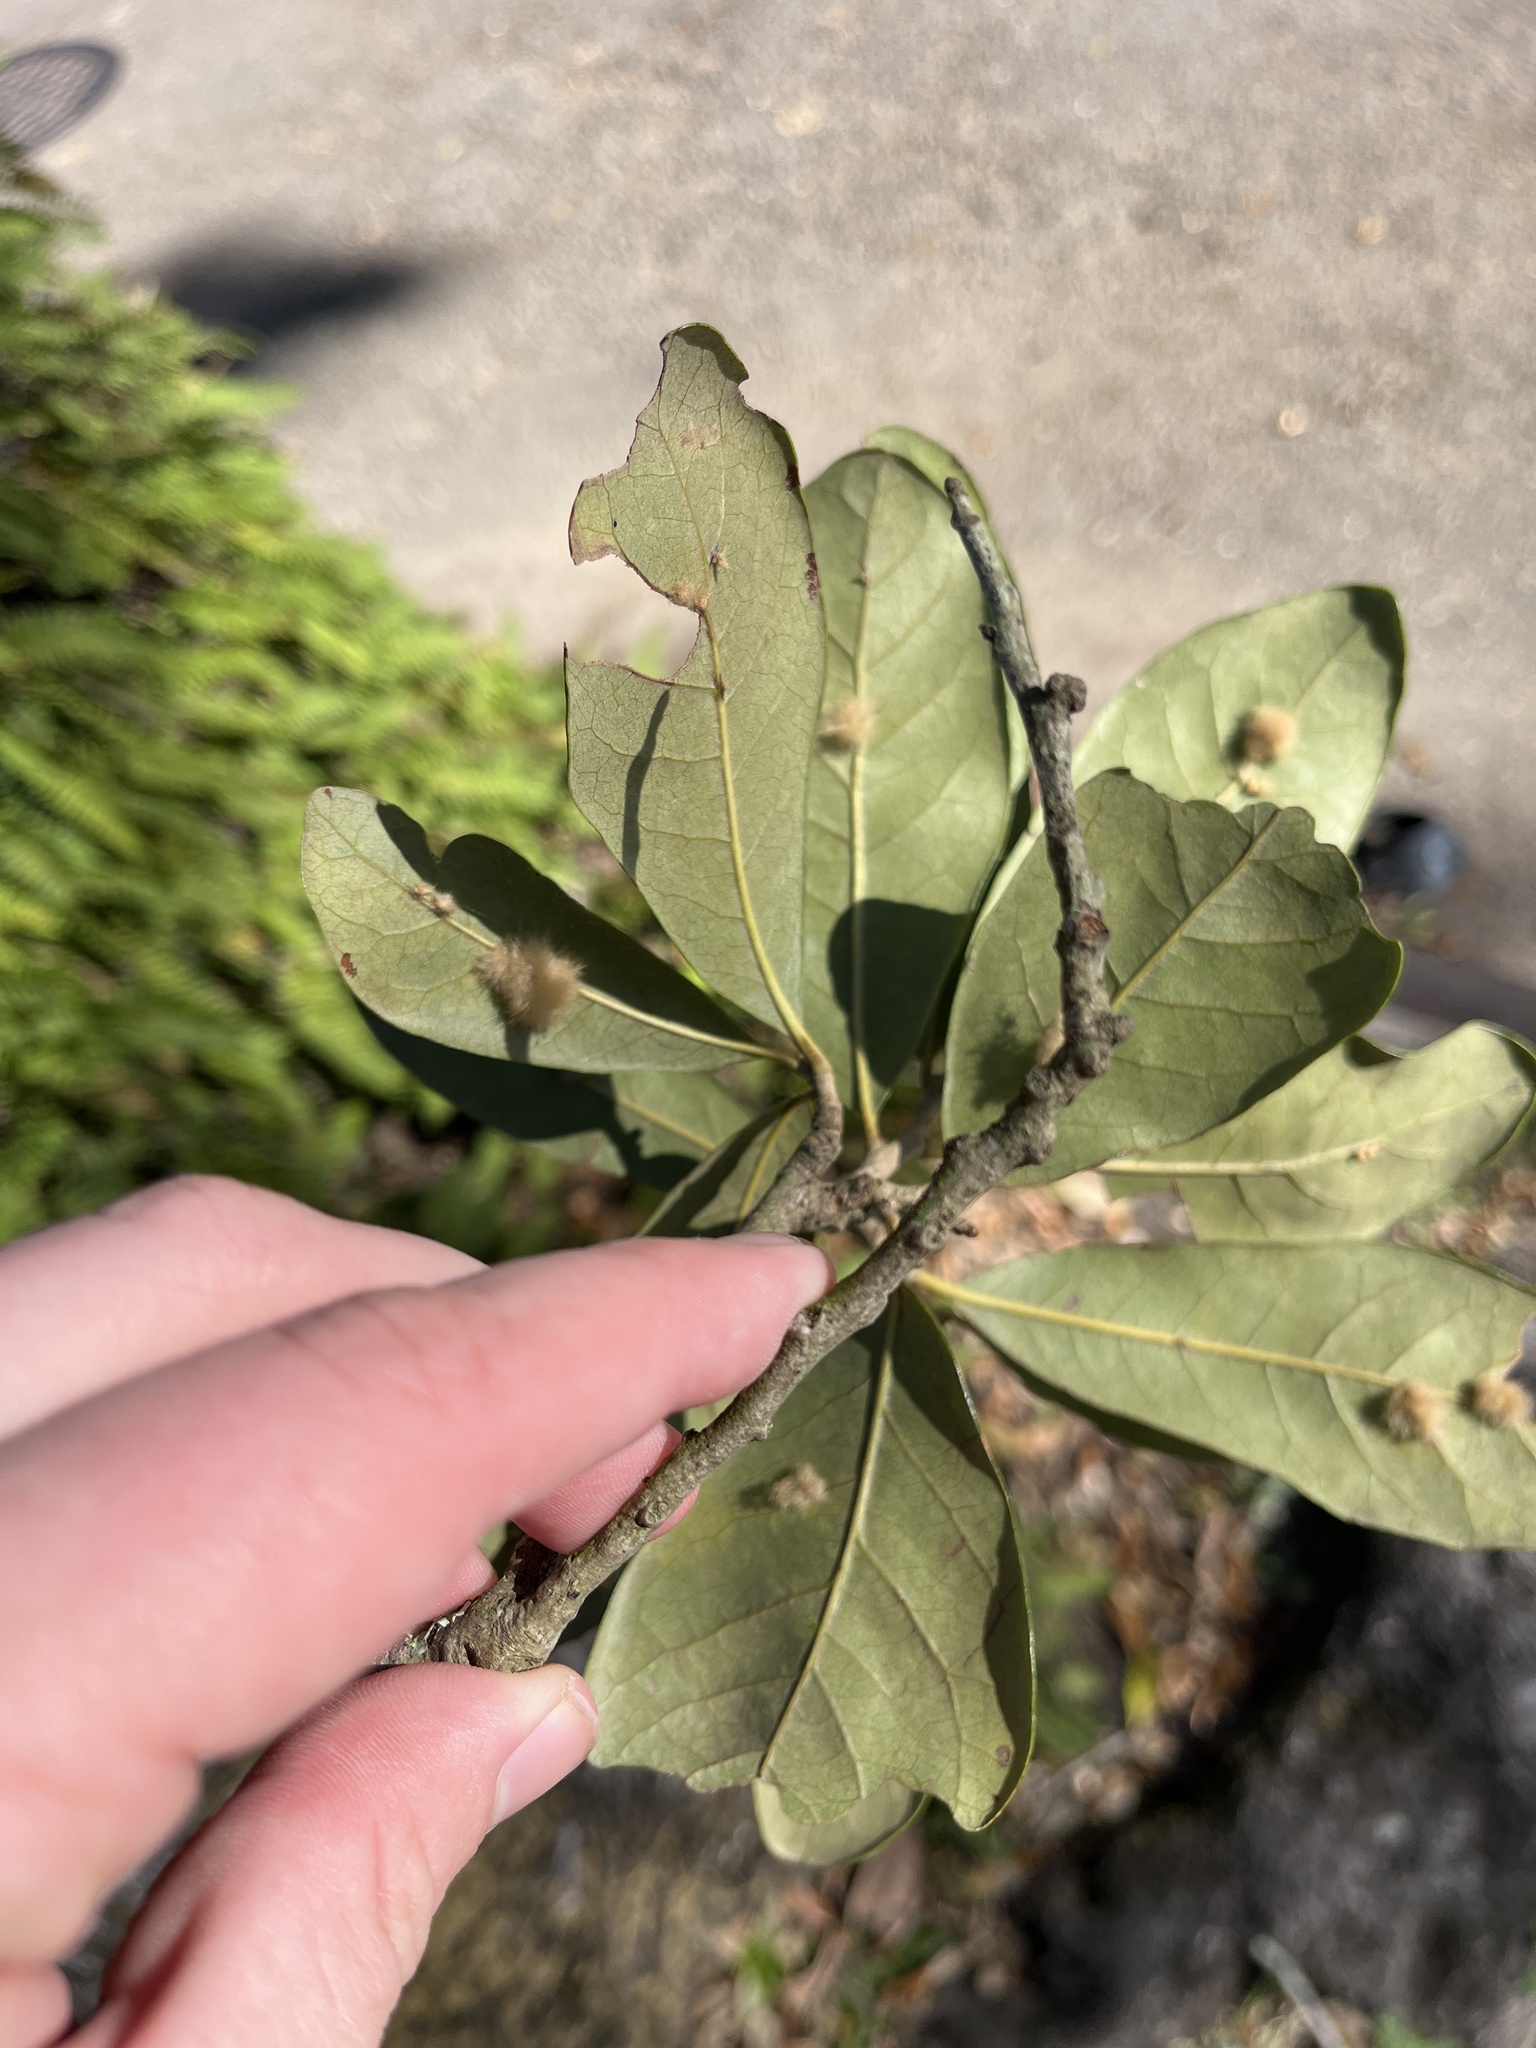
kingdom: Animalia
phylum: Arthropoda
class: Insecta
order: Hymenoptera
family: Cynipidae
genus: Andricus
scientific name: Andricus Druon quercuslanigerum
